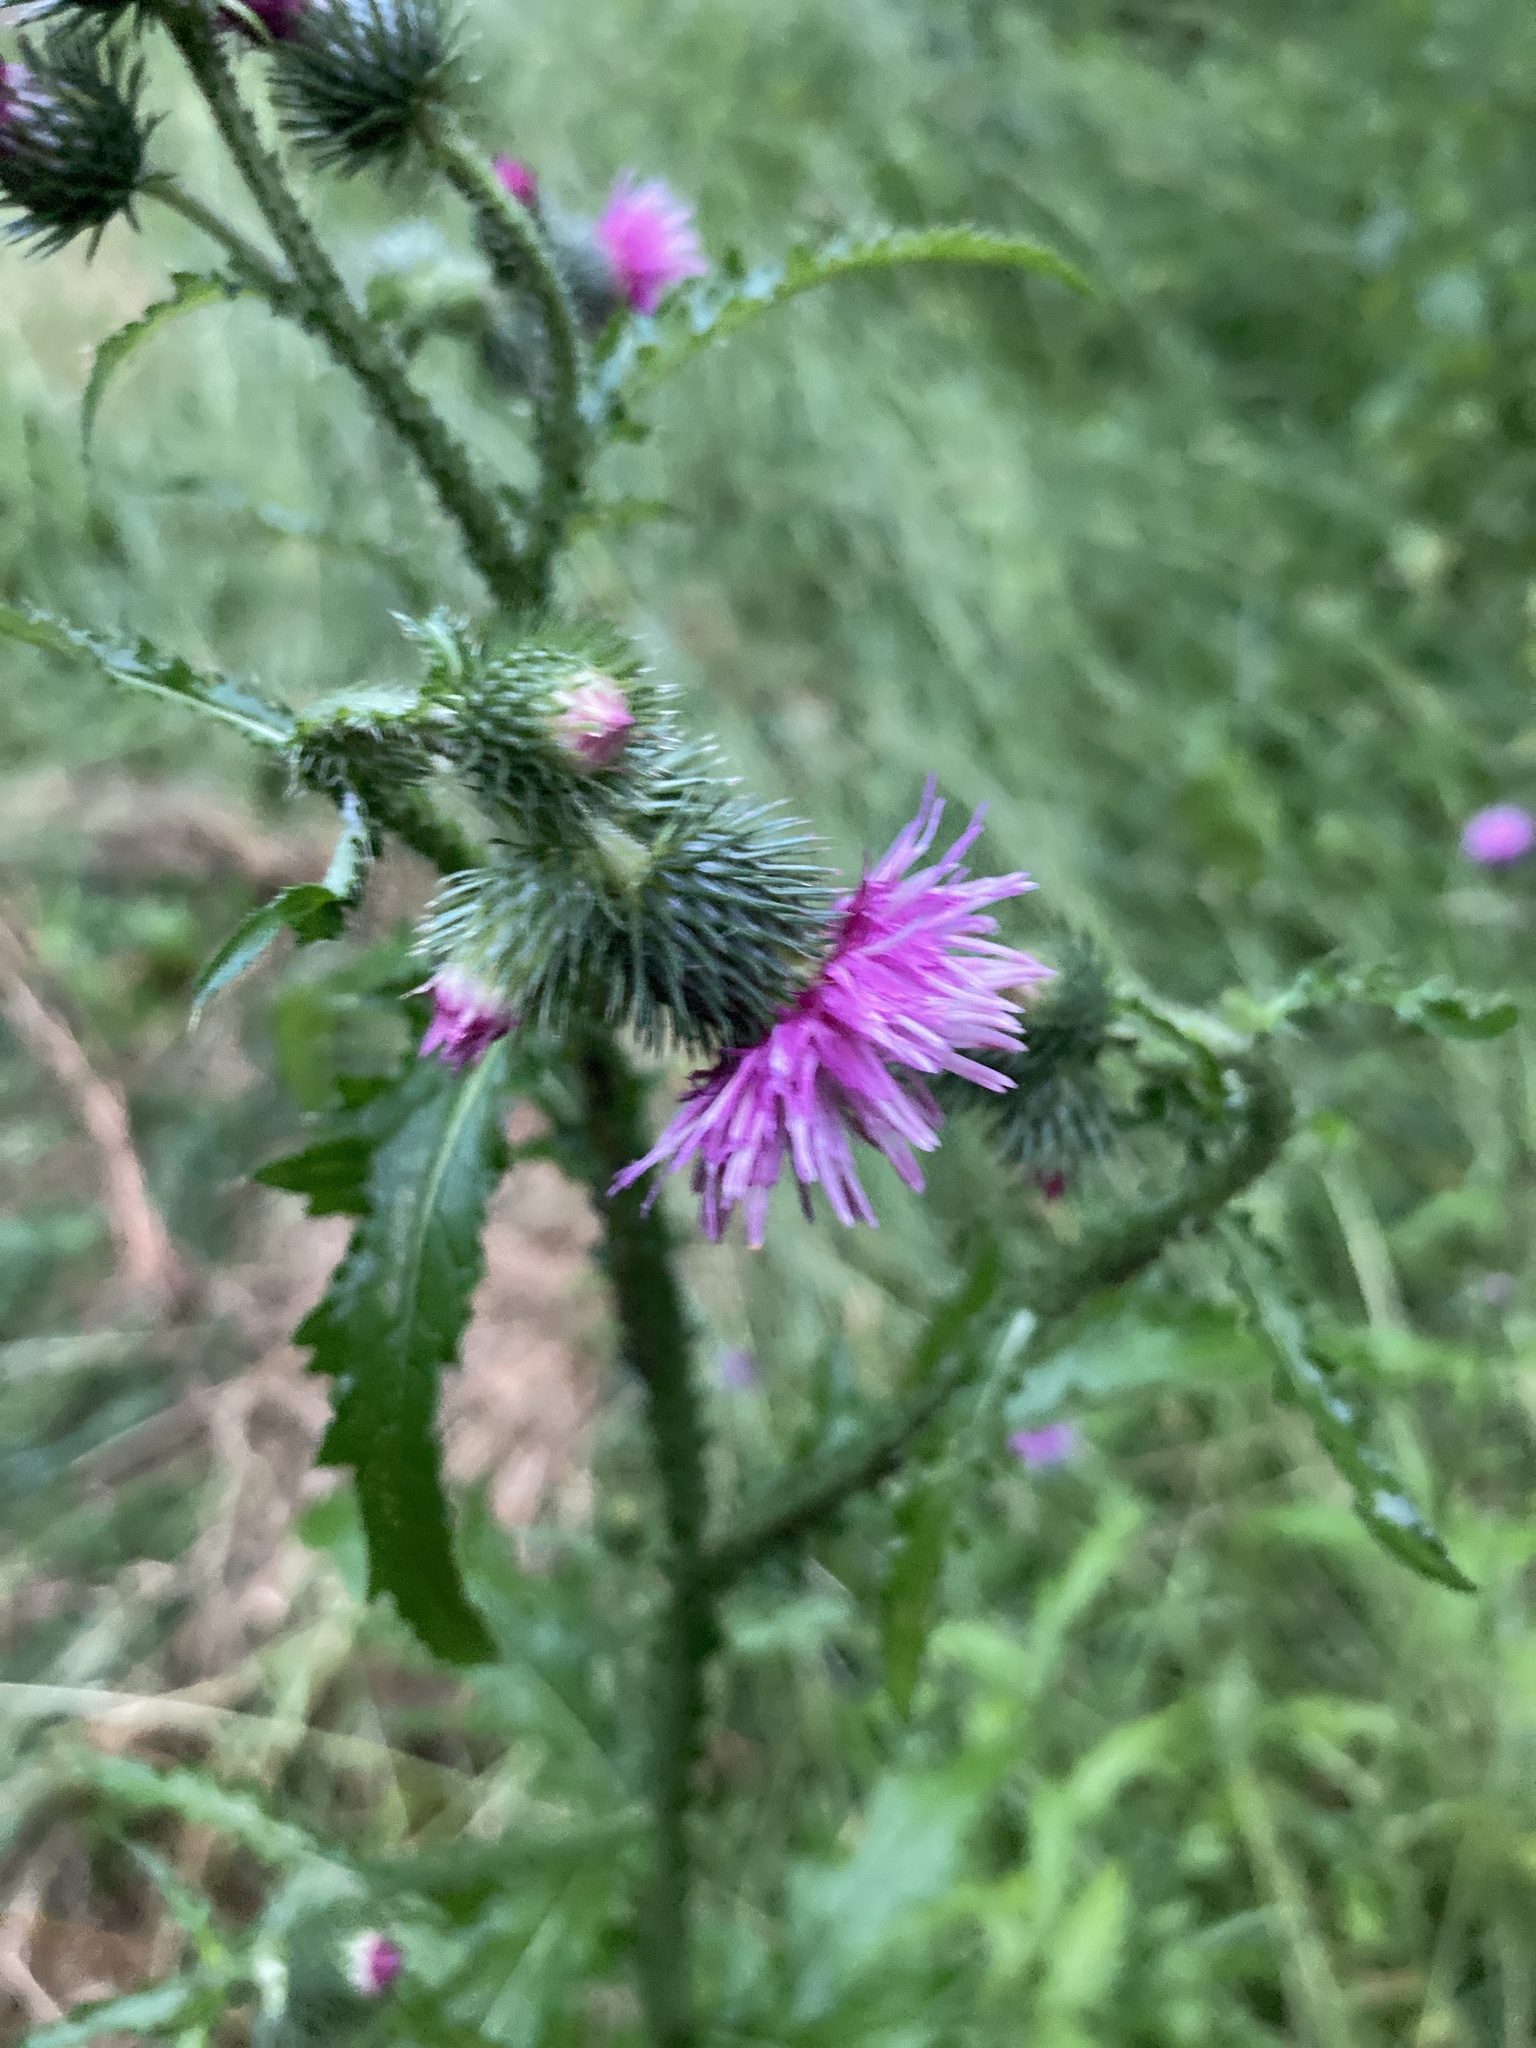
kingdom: Plantae
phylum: Tracheophyta
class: Magnoliopsida
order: Asterales
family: Asteraceae
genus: Carduus
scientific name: Carduus crispus
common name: Welted thistle
